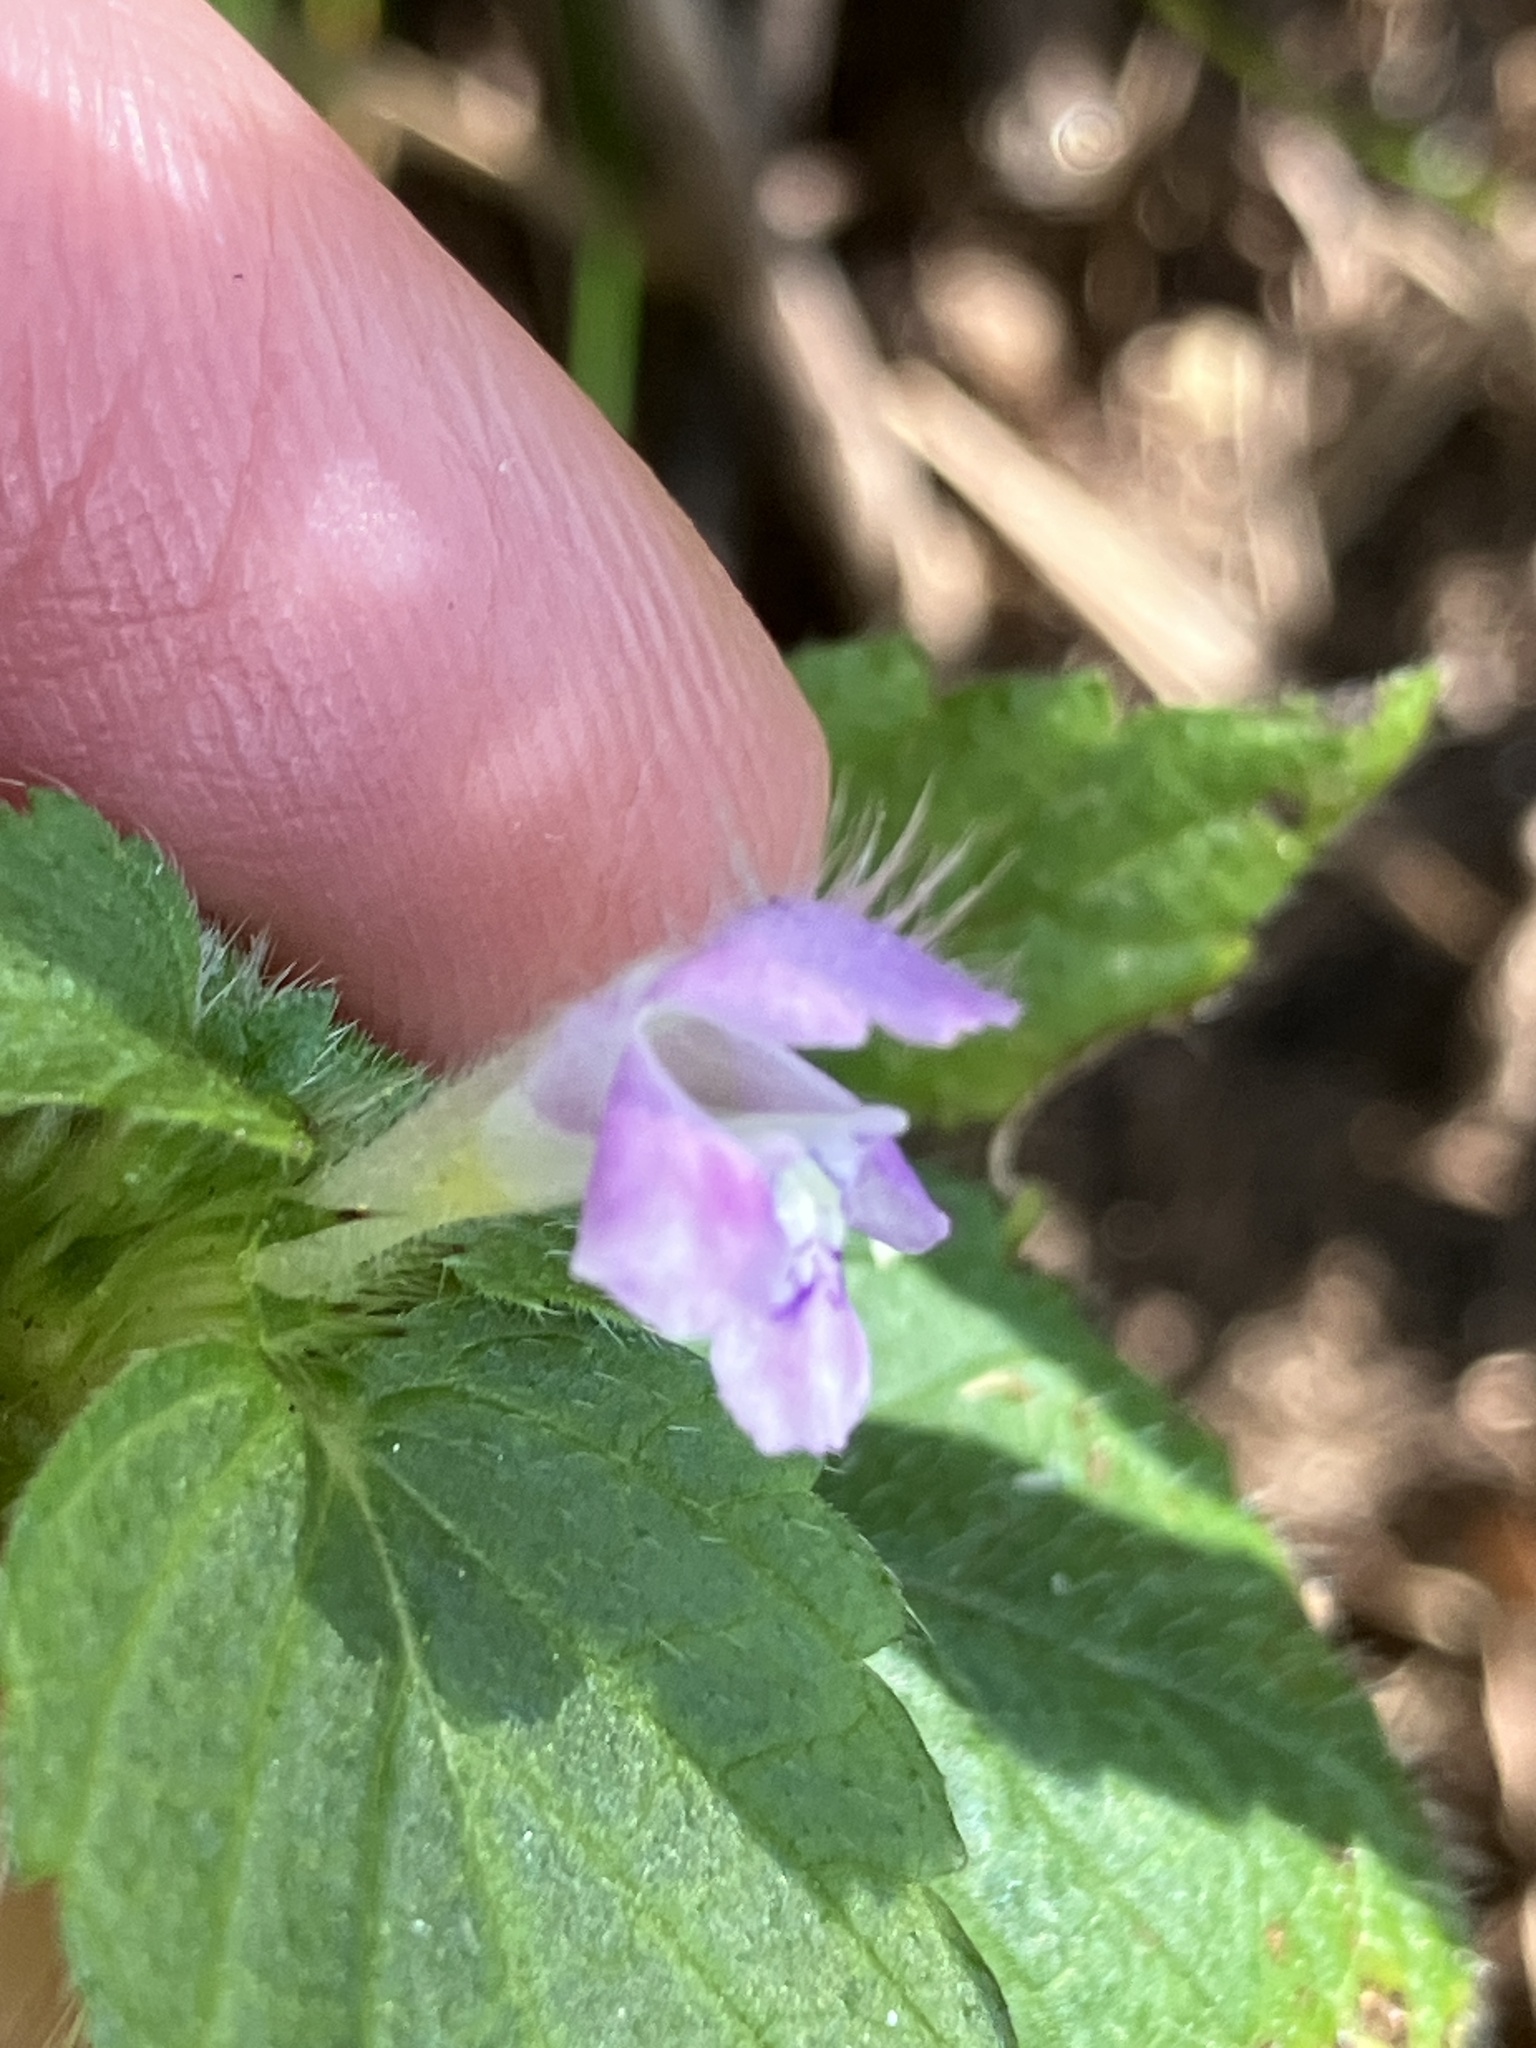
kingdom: Plantae
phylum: Tracheophyta
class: Magnoliopsida
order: Lamiales
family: Lamiaceae
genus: Galeopsis
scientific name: Galeopsis tetrahit
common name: Common hemp-nettle
